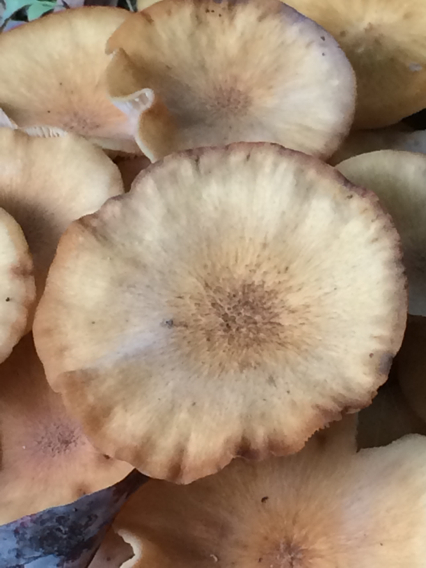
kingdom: Fungi
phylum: Basidiomycota
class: Agaricomycetes
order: Agaricales
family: Physalacriaceae
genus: Desarmillaria
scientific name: Desarmillaria caespitosa
